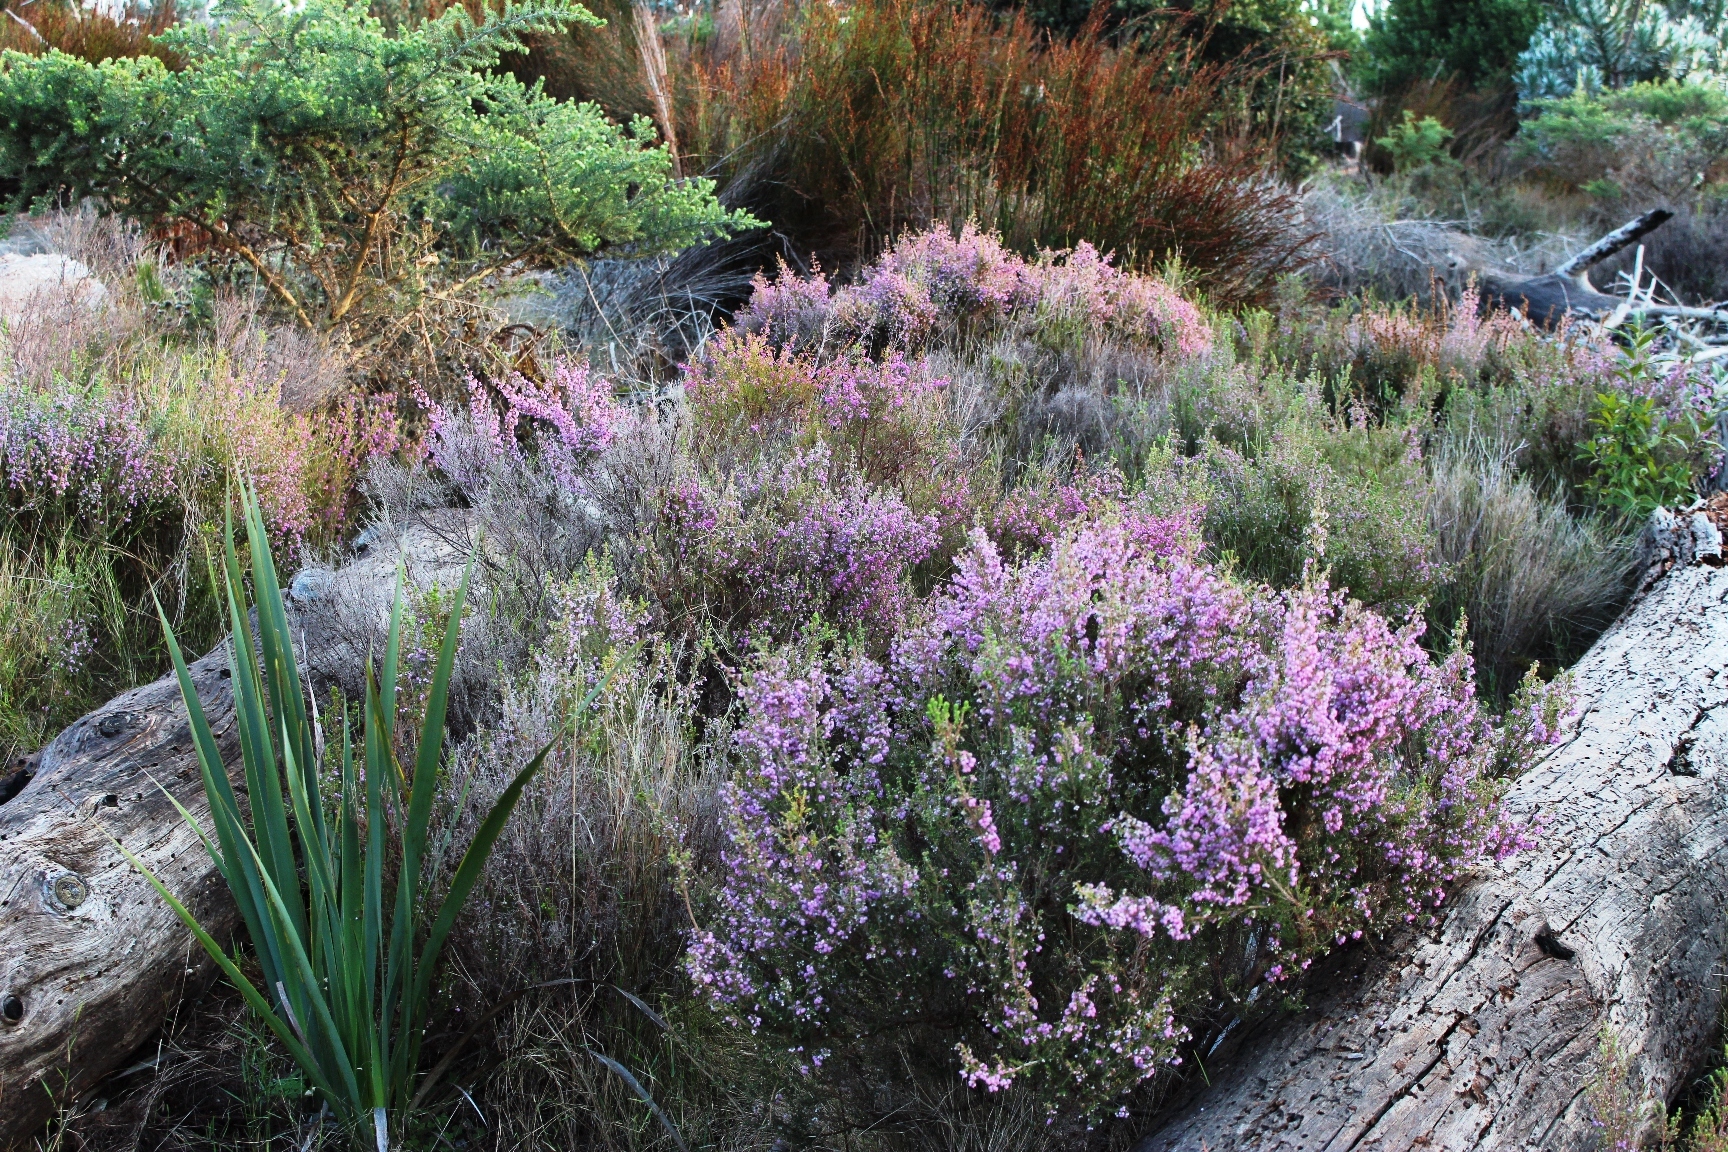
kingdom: Plantae
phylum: Tracheophyta
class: Magnoliopsida
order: Ericales
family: Ericaceae
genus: Erica
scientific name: Erica hirtiflora
